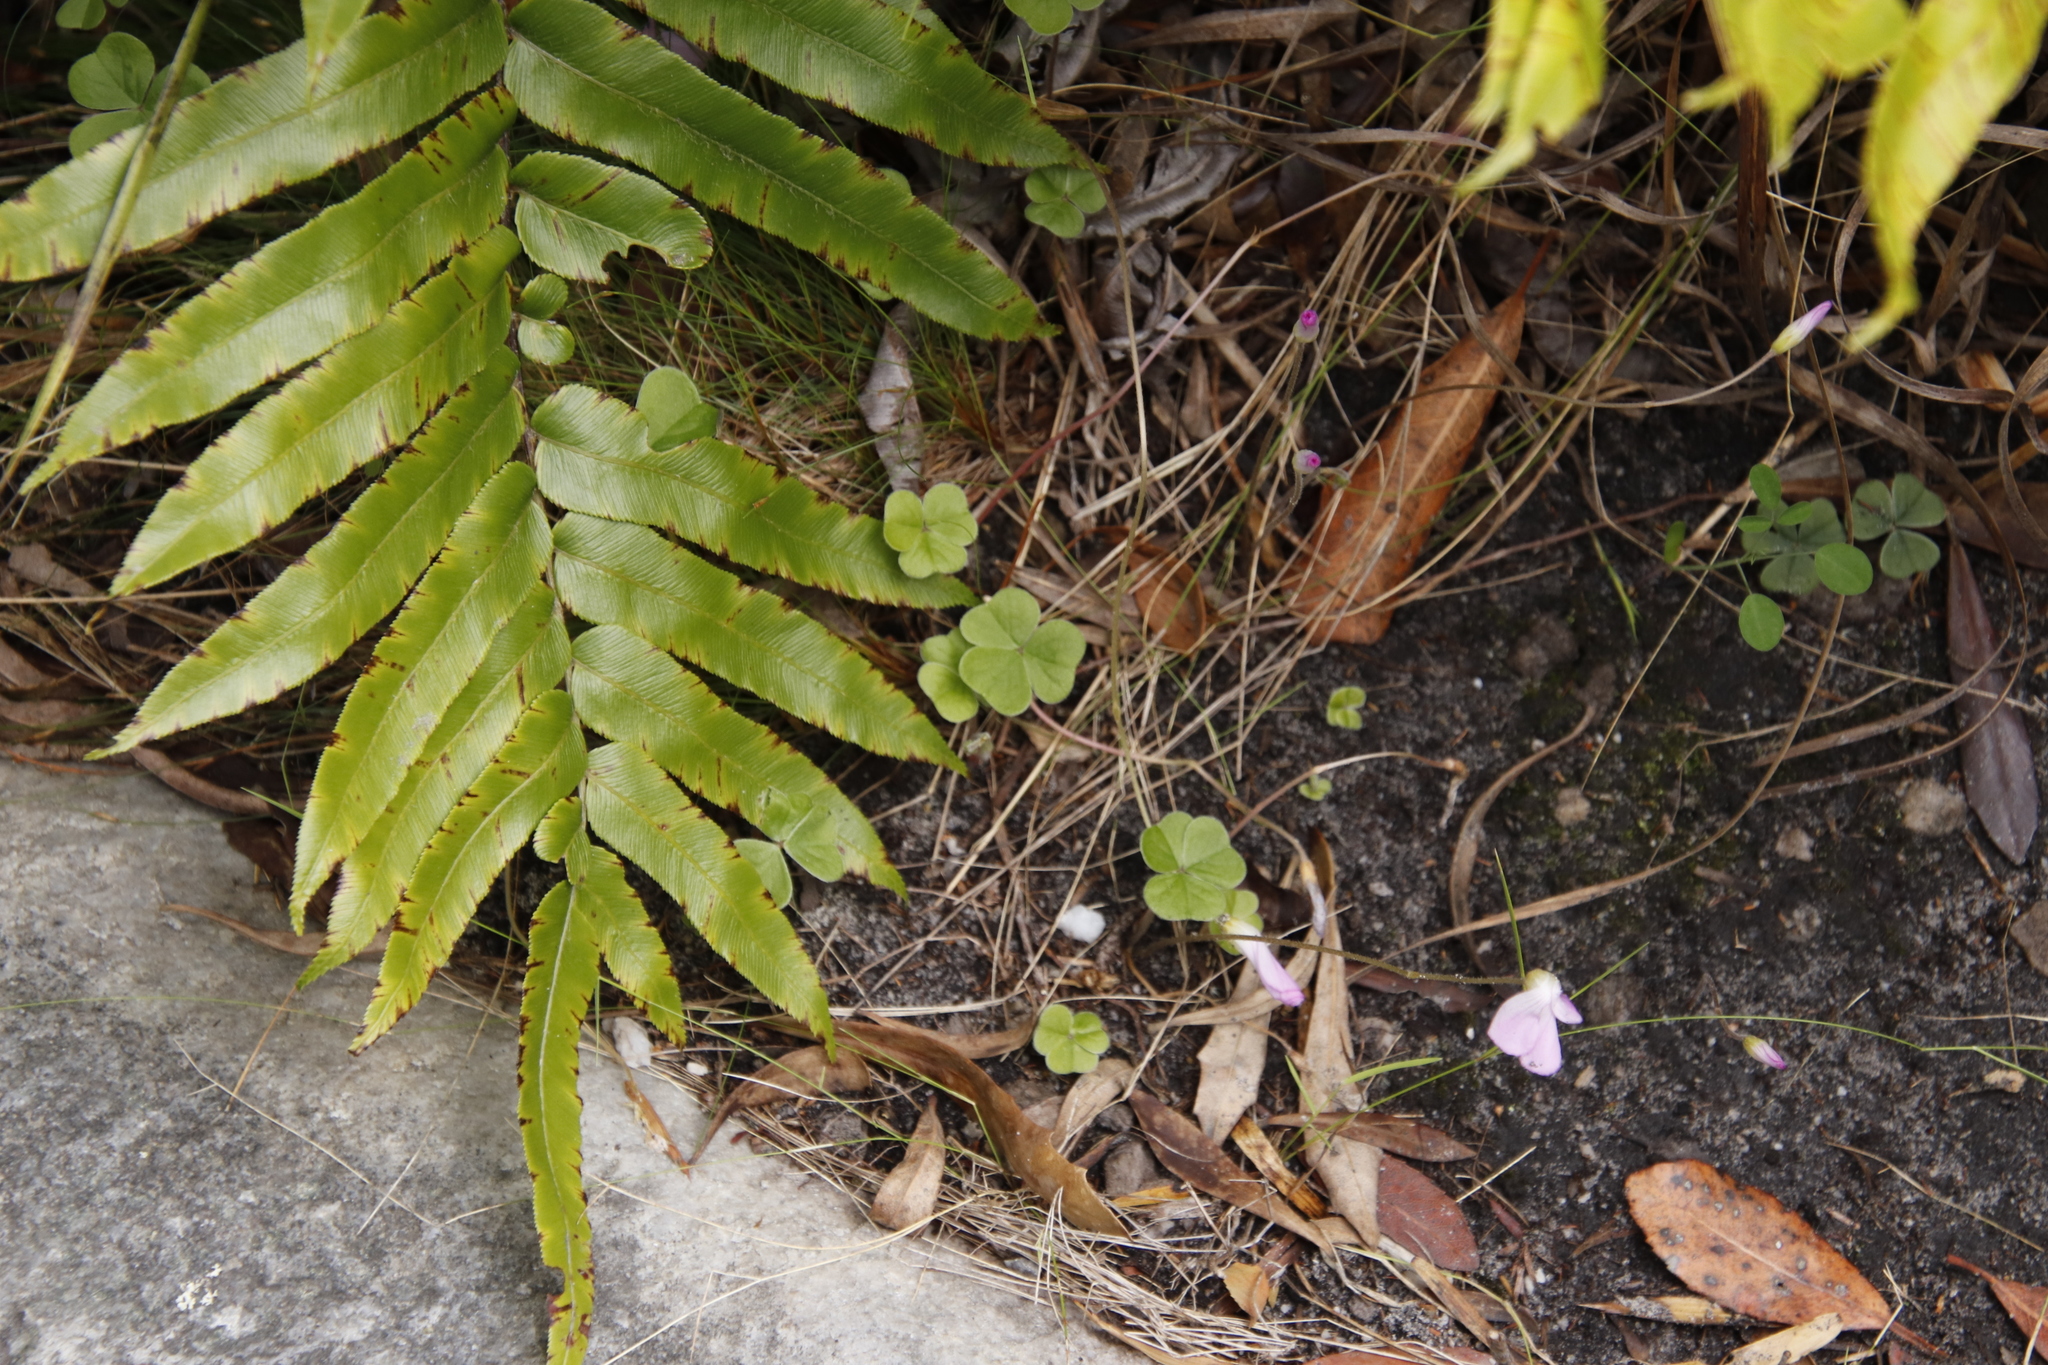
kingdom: Plantae
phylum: Tracheophyta
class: Magnoliopsida
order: Oxalidales
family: Oxalidaceae
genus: Oxalis
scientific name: Oxalis truncatula
